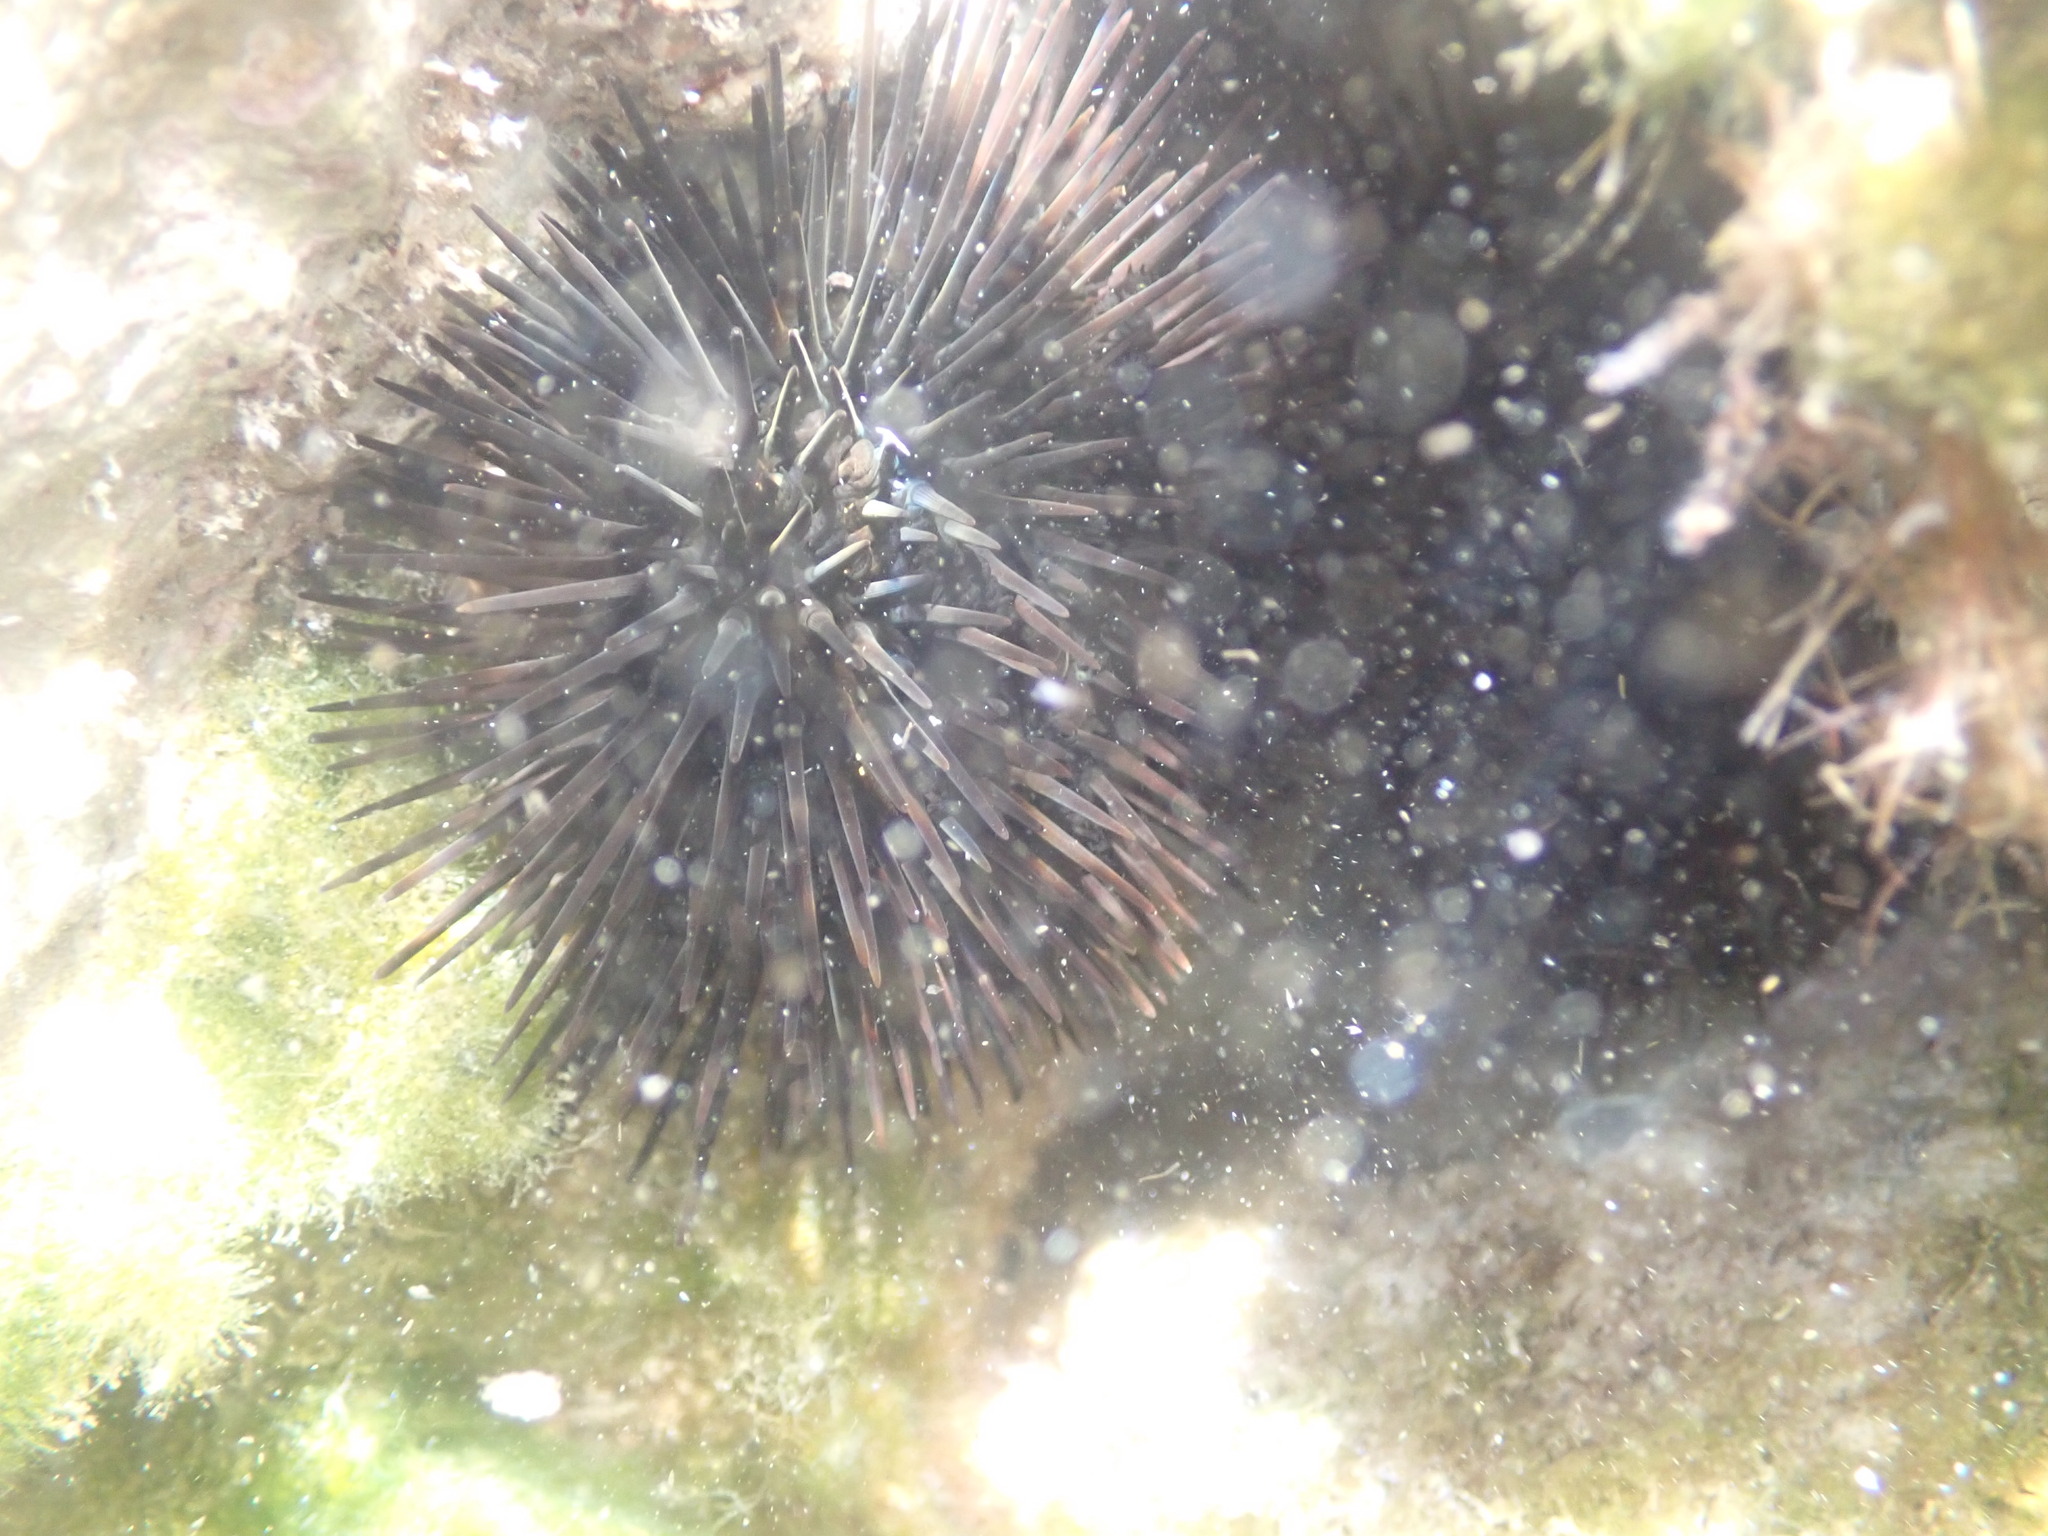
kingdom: Animalia
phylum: Echinodermata
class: Echinoidea
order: Arbacioida
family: Arbaciidae
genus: Arbacia
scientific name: Arbacia lixula
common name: Black sea urchin
